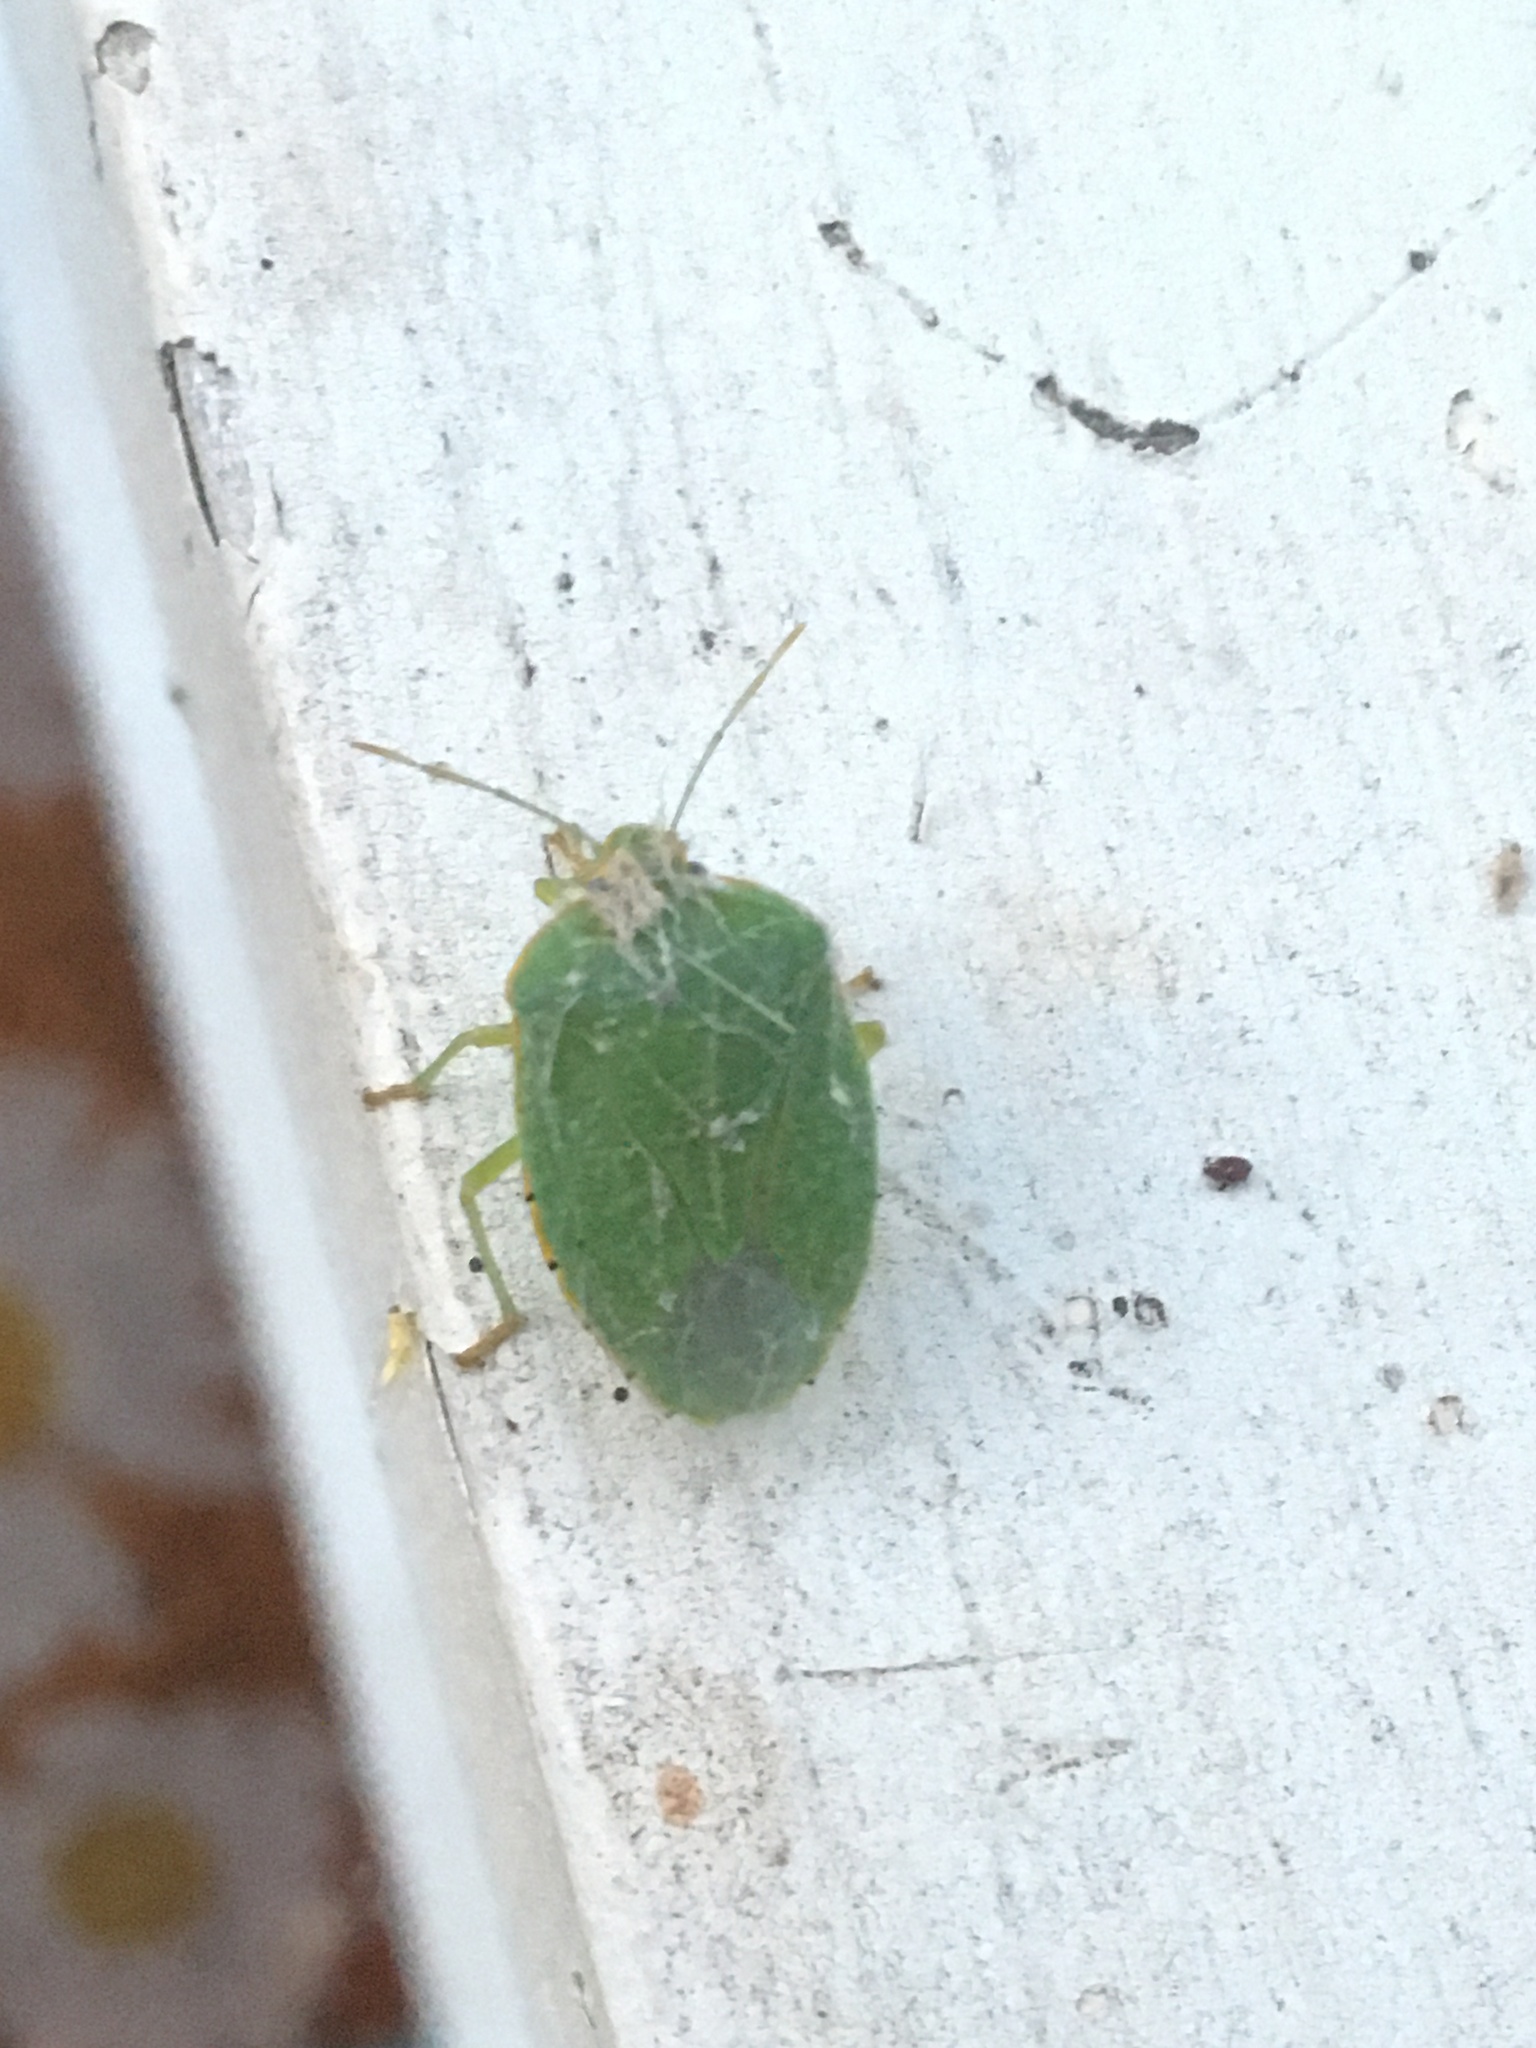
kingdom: Animalia
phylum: Arthropoda
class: Insecta
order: Hemiptera
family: Pentatomidae
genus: Chinavia
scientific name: Chinavia hilaris
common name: Green stink bug
